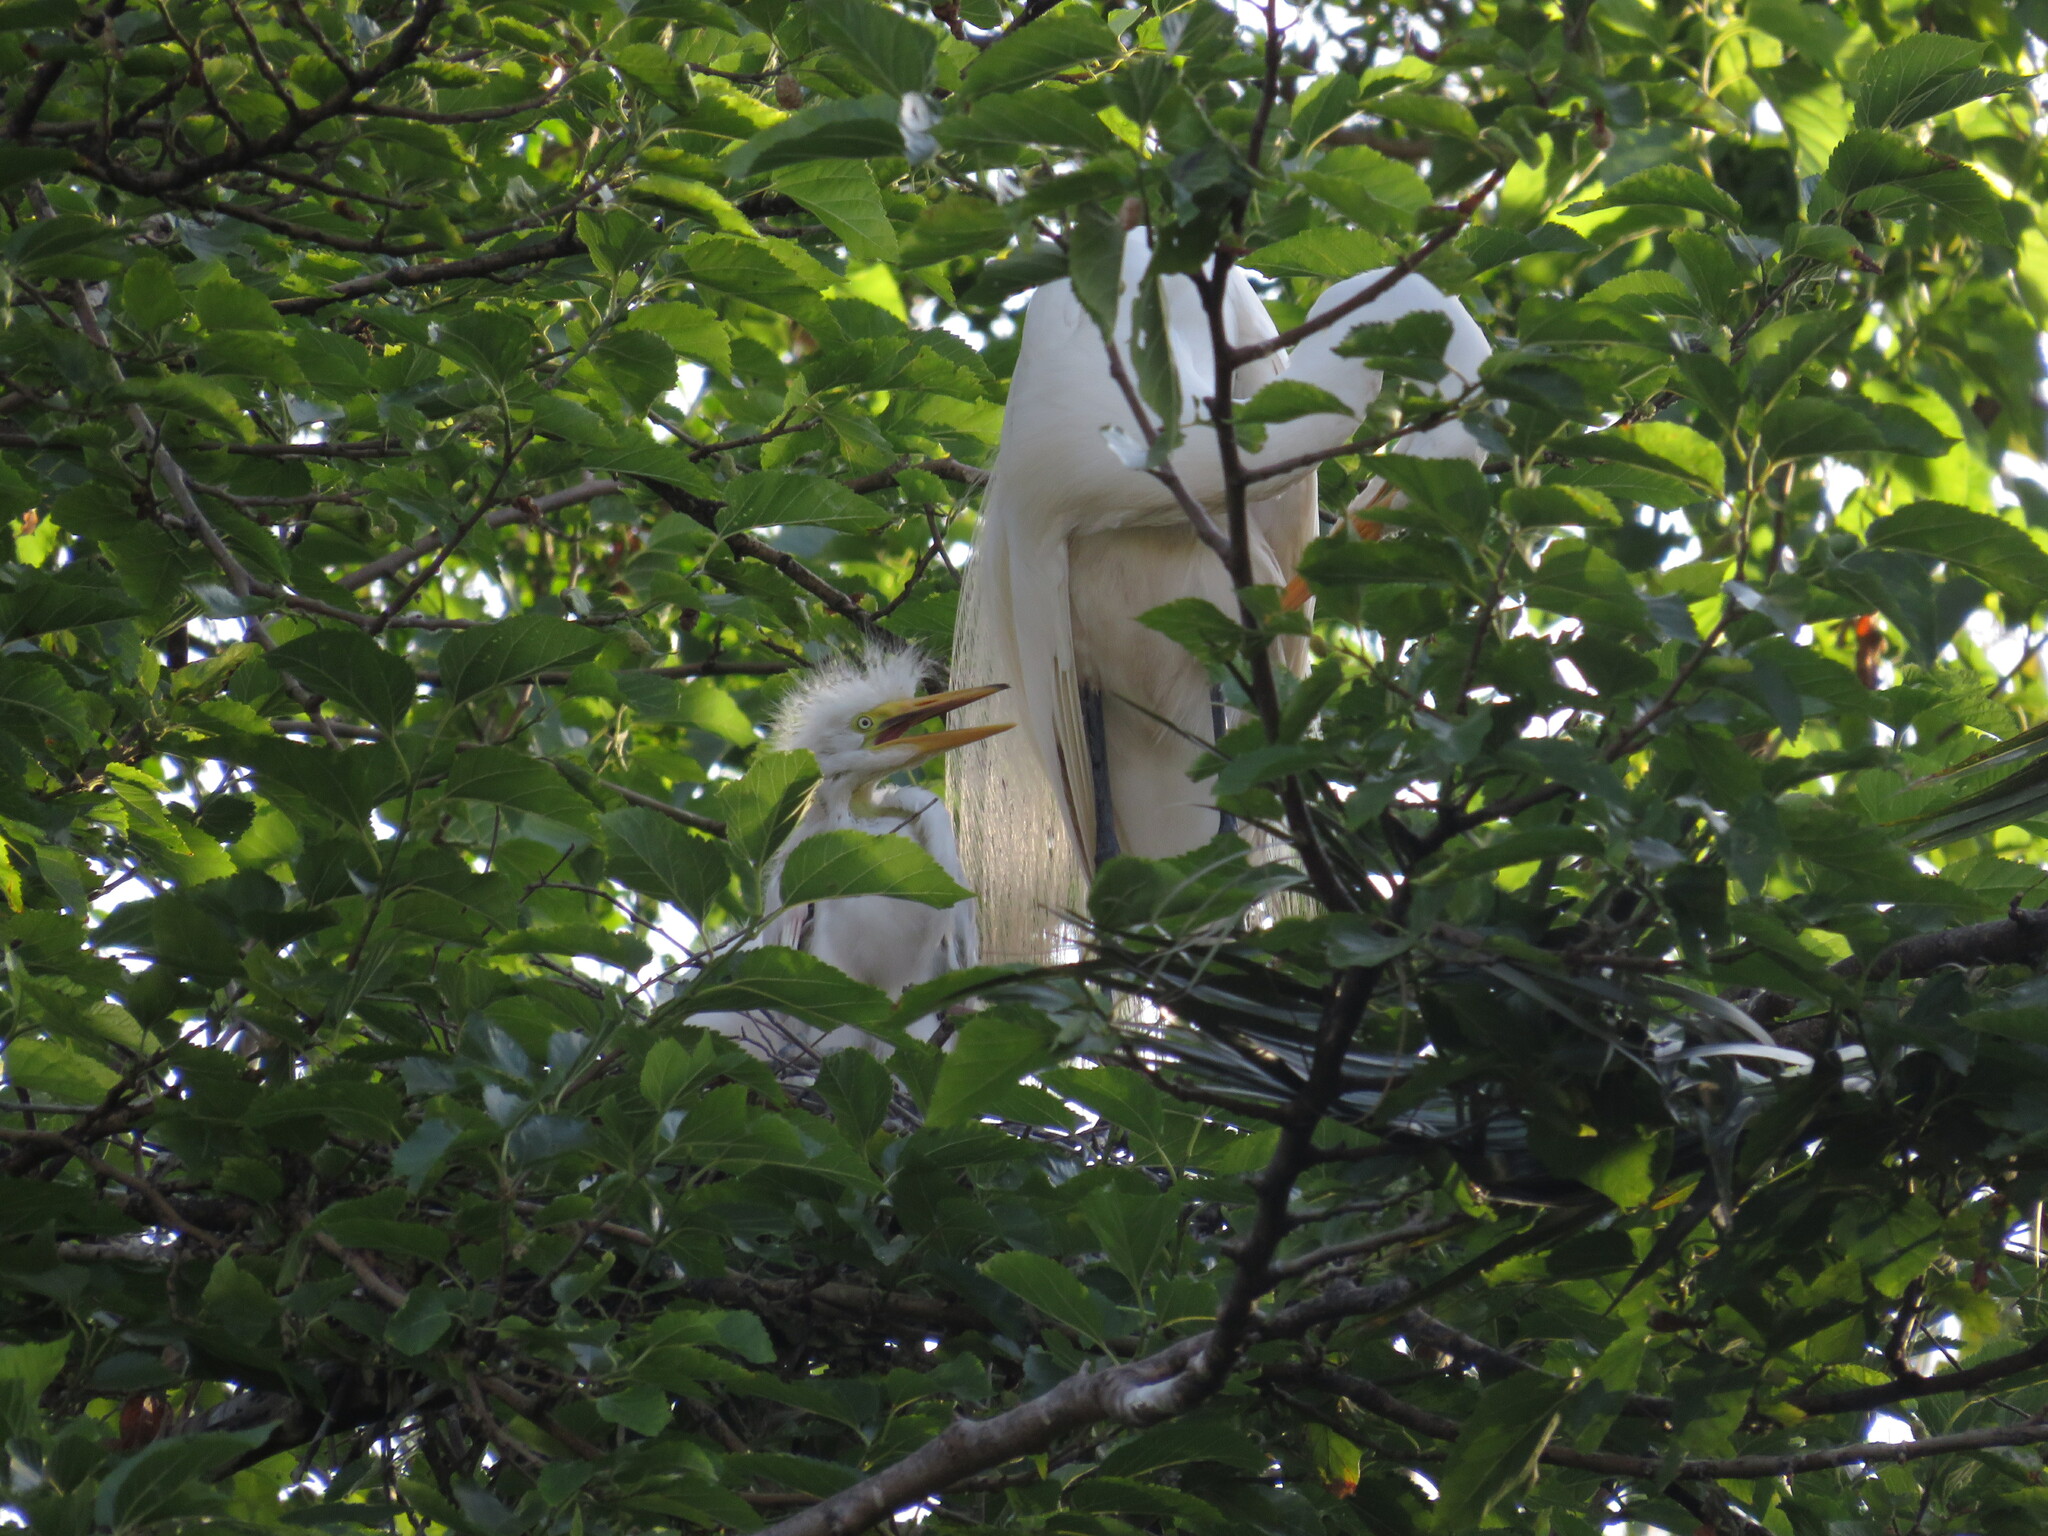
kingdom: Animalia
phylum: Chordata
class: Aves
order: Pelecaniformes
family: Ardeidae
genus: Ardea
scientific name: Ardea alba
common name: Great egret
